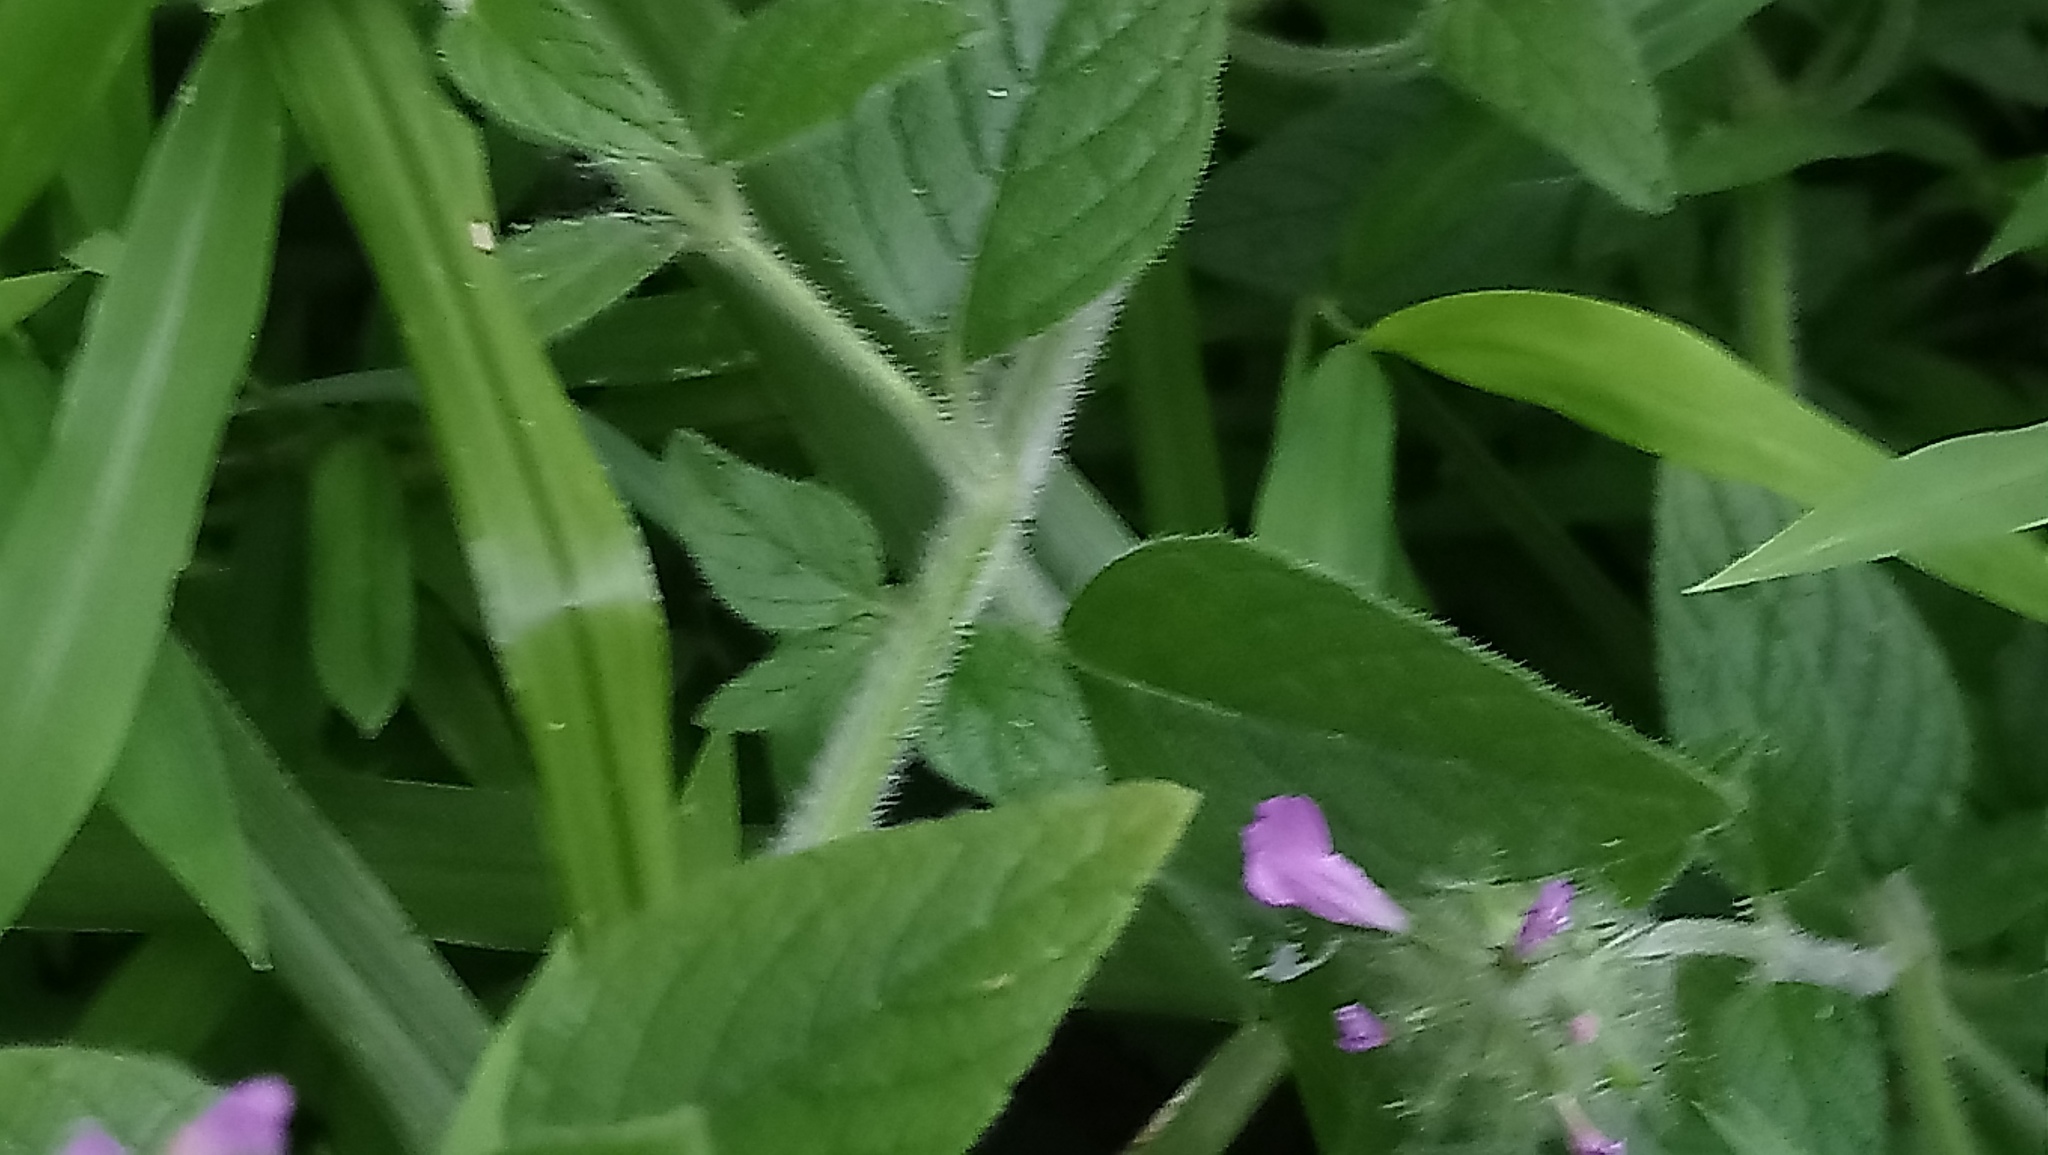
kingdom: Plantae
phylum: Tracheophyta
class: Magnoliopsida
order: Lamiales
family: Lamiaceae
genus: Clinopodium
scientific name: Clinopodium vulgare
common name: Wild basil
